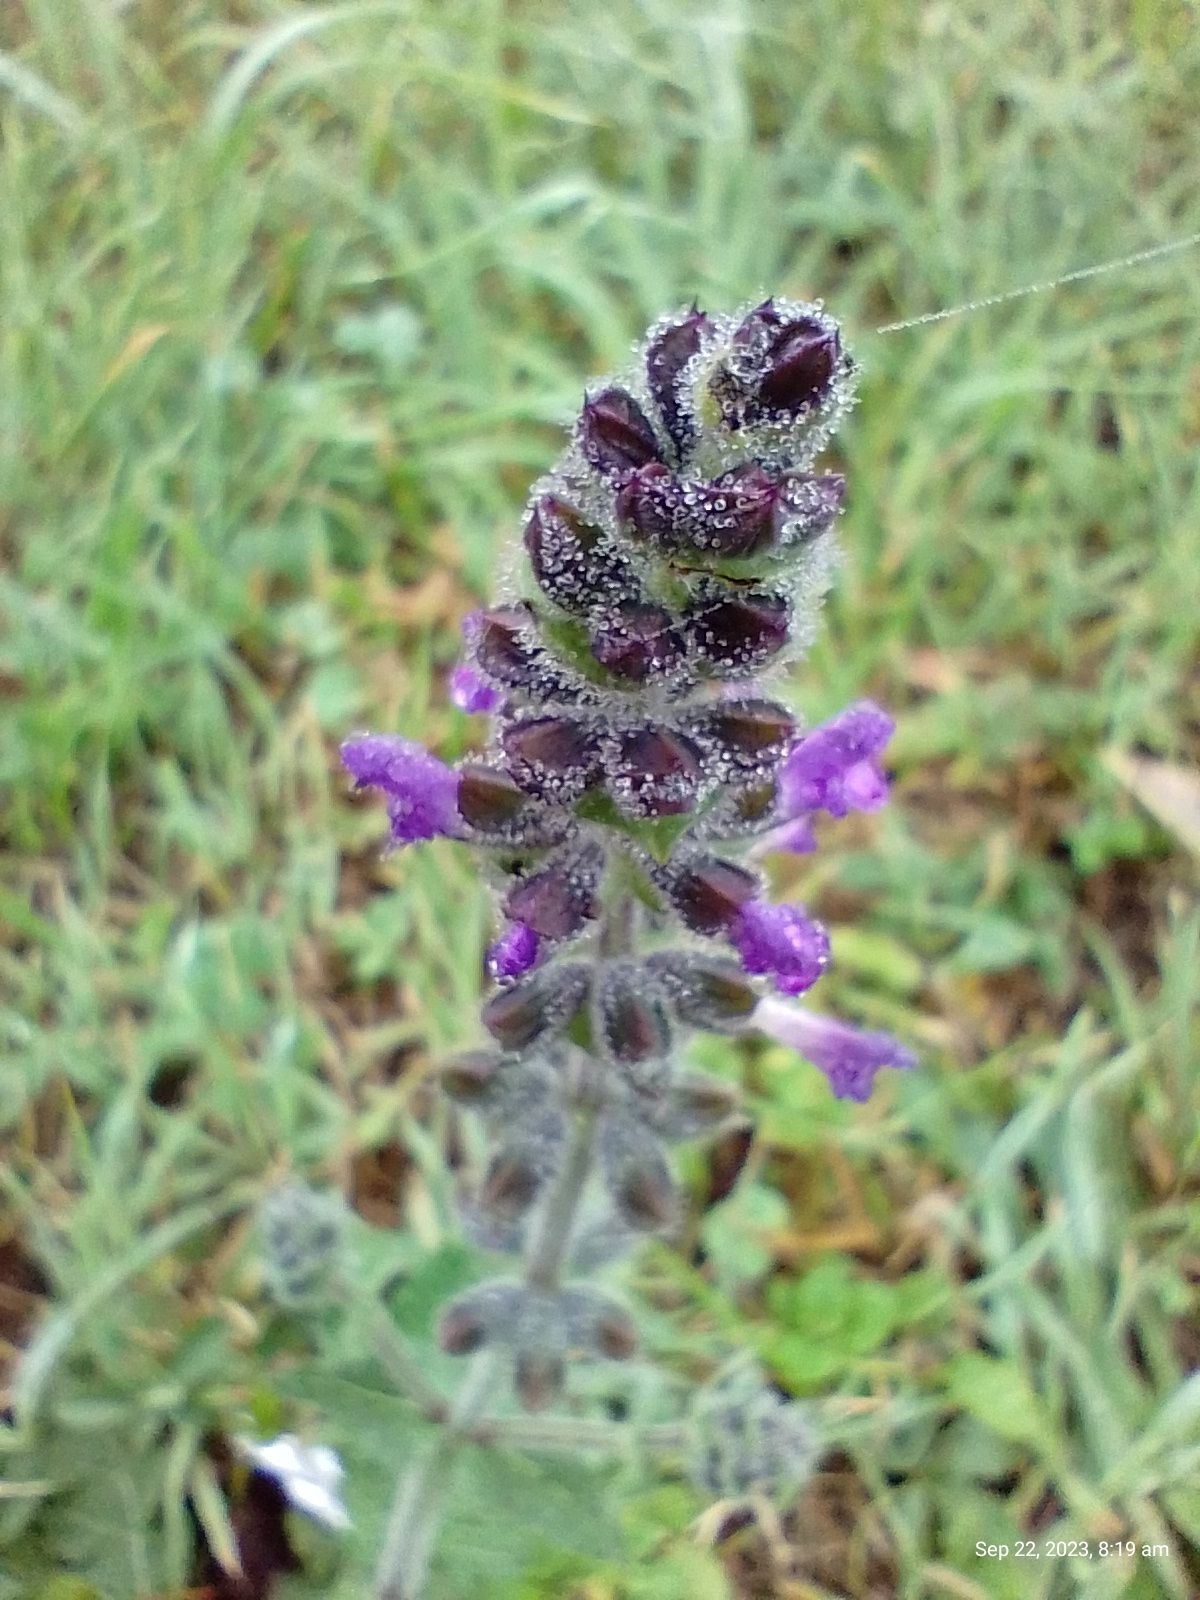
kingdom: Plantae
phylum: Tracheophyta
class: Magnoliopsida
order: Lamiales
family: Lamiaceae
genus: Salvia
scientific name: Salvia verbenaca
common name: Wild clary
